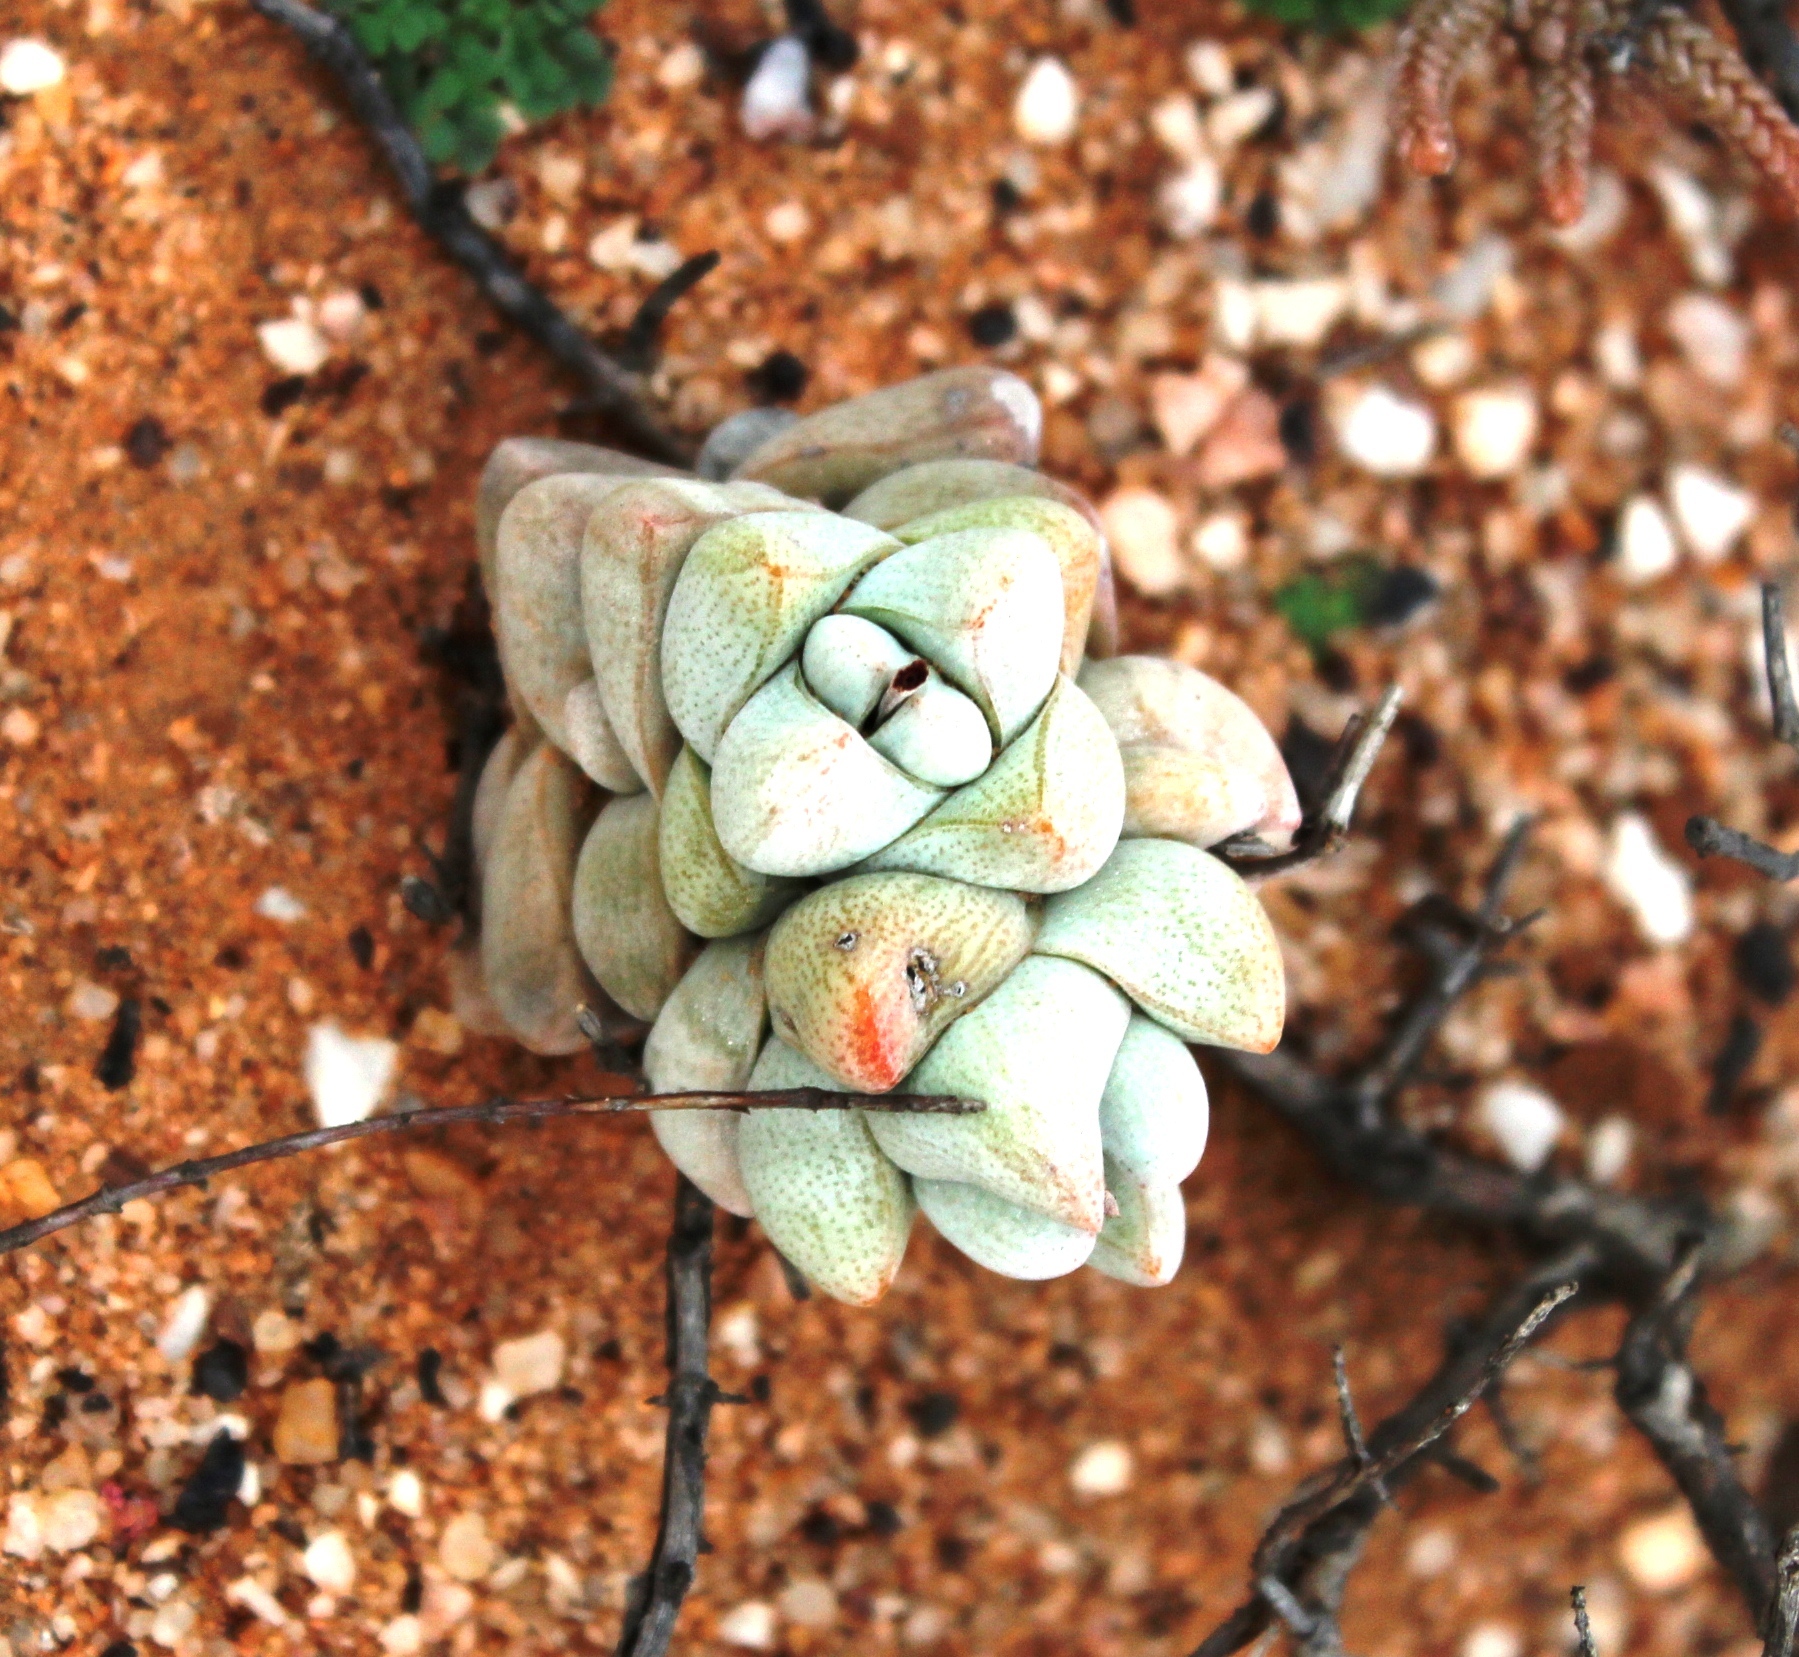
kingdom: Plantae
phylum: Tracheophyta
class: Magnoliopsida
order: Saxifragales
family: Crassulaceae
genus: Crassula
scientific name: Crassula deceptor
